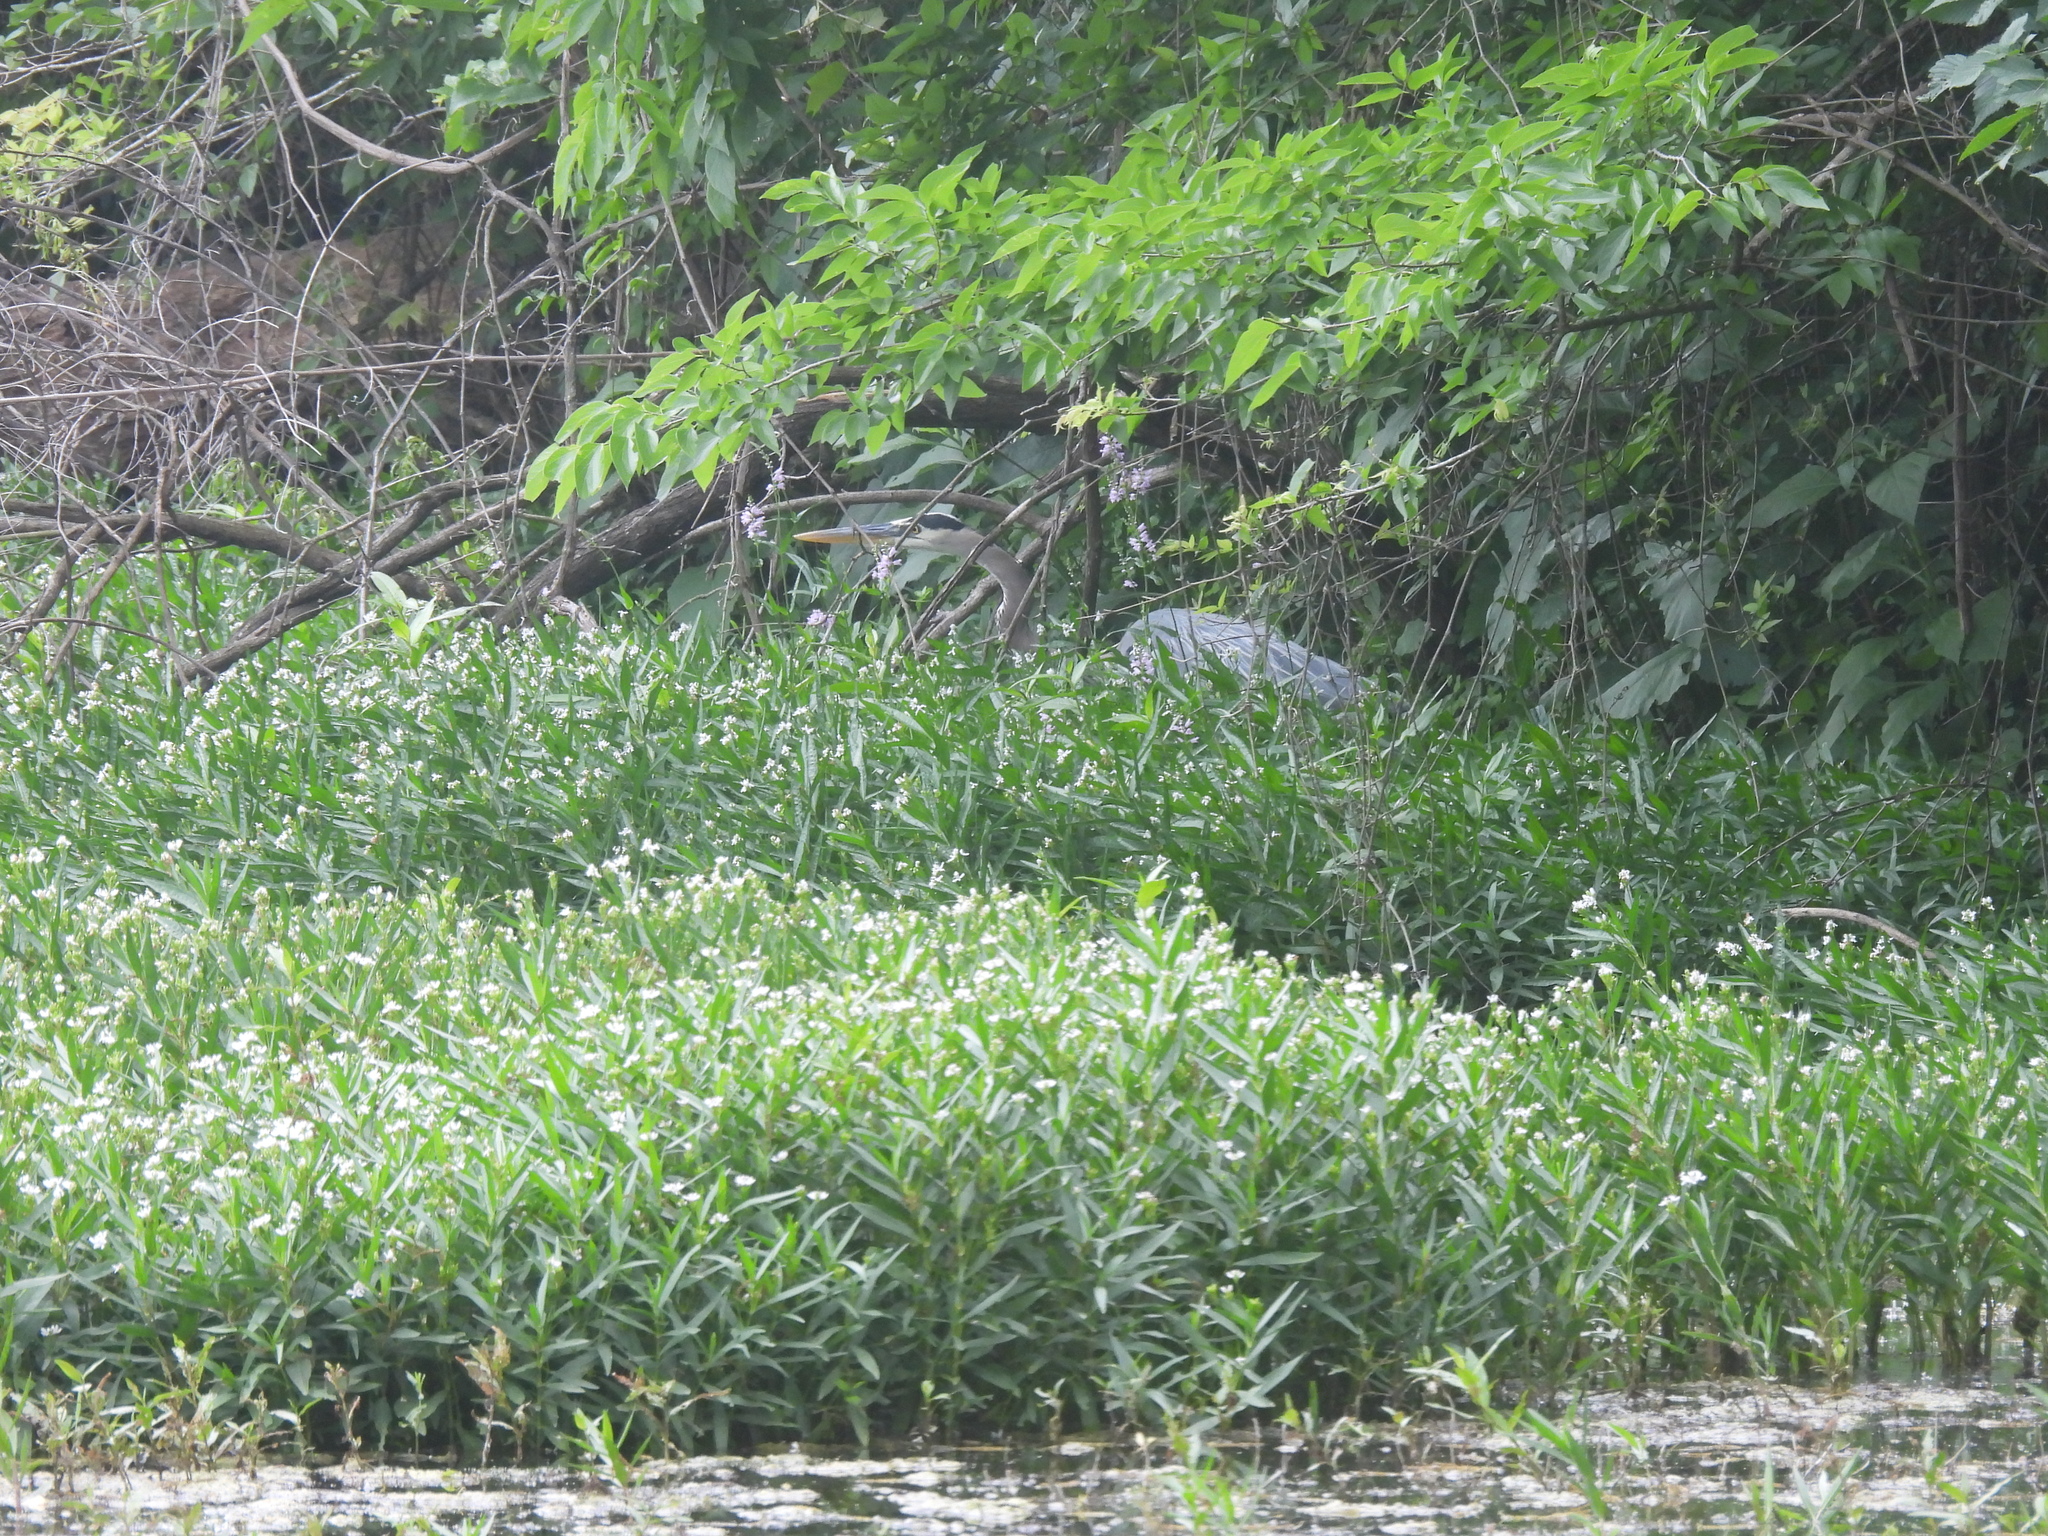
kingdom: Animalia
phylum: Chordata
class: Aves
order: Pelecaniformes
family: Ardeidae
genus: Ardea
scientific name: Ardea herodias
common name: Great blue heron
